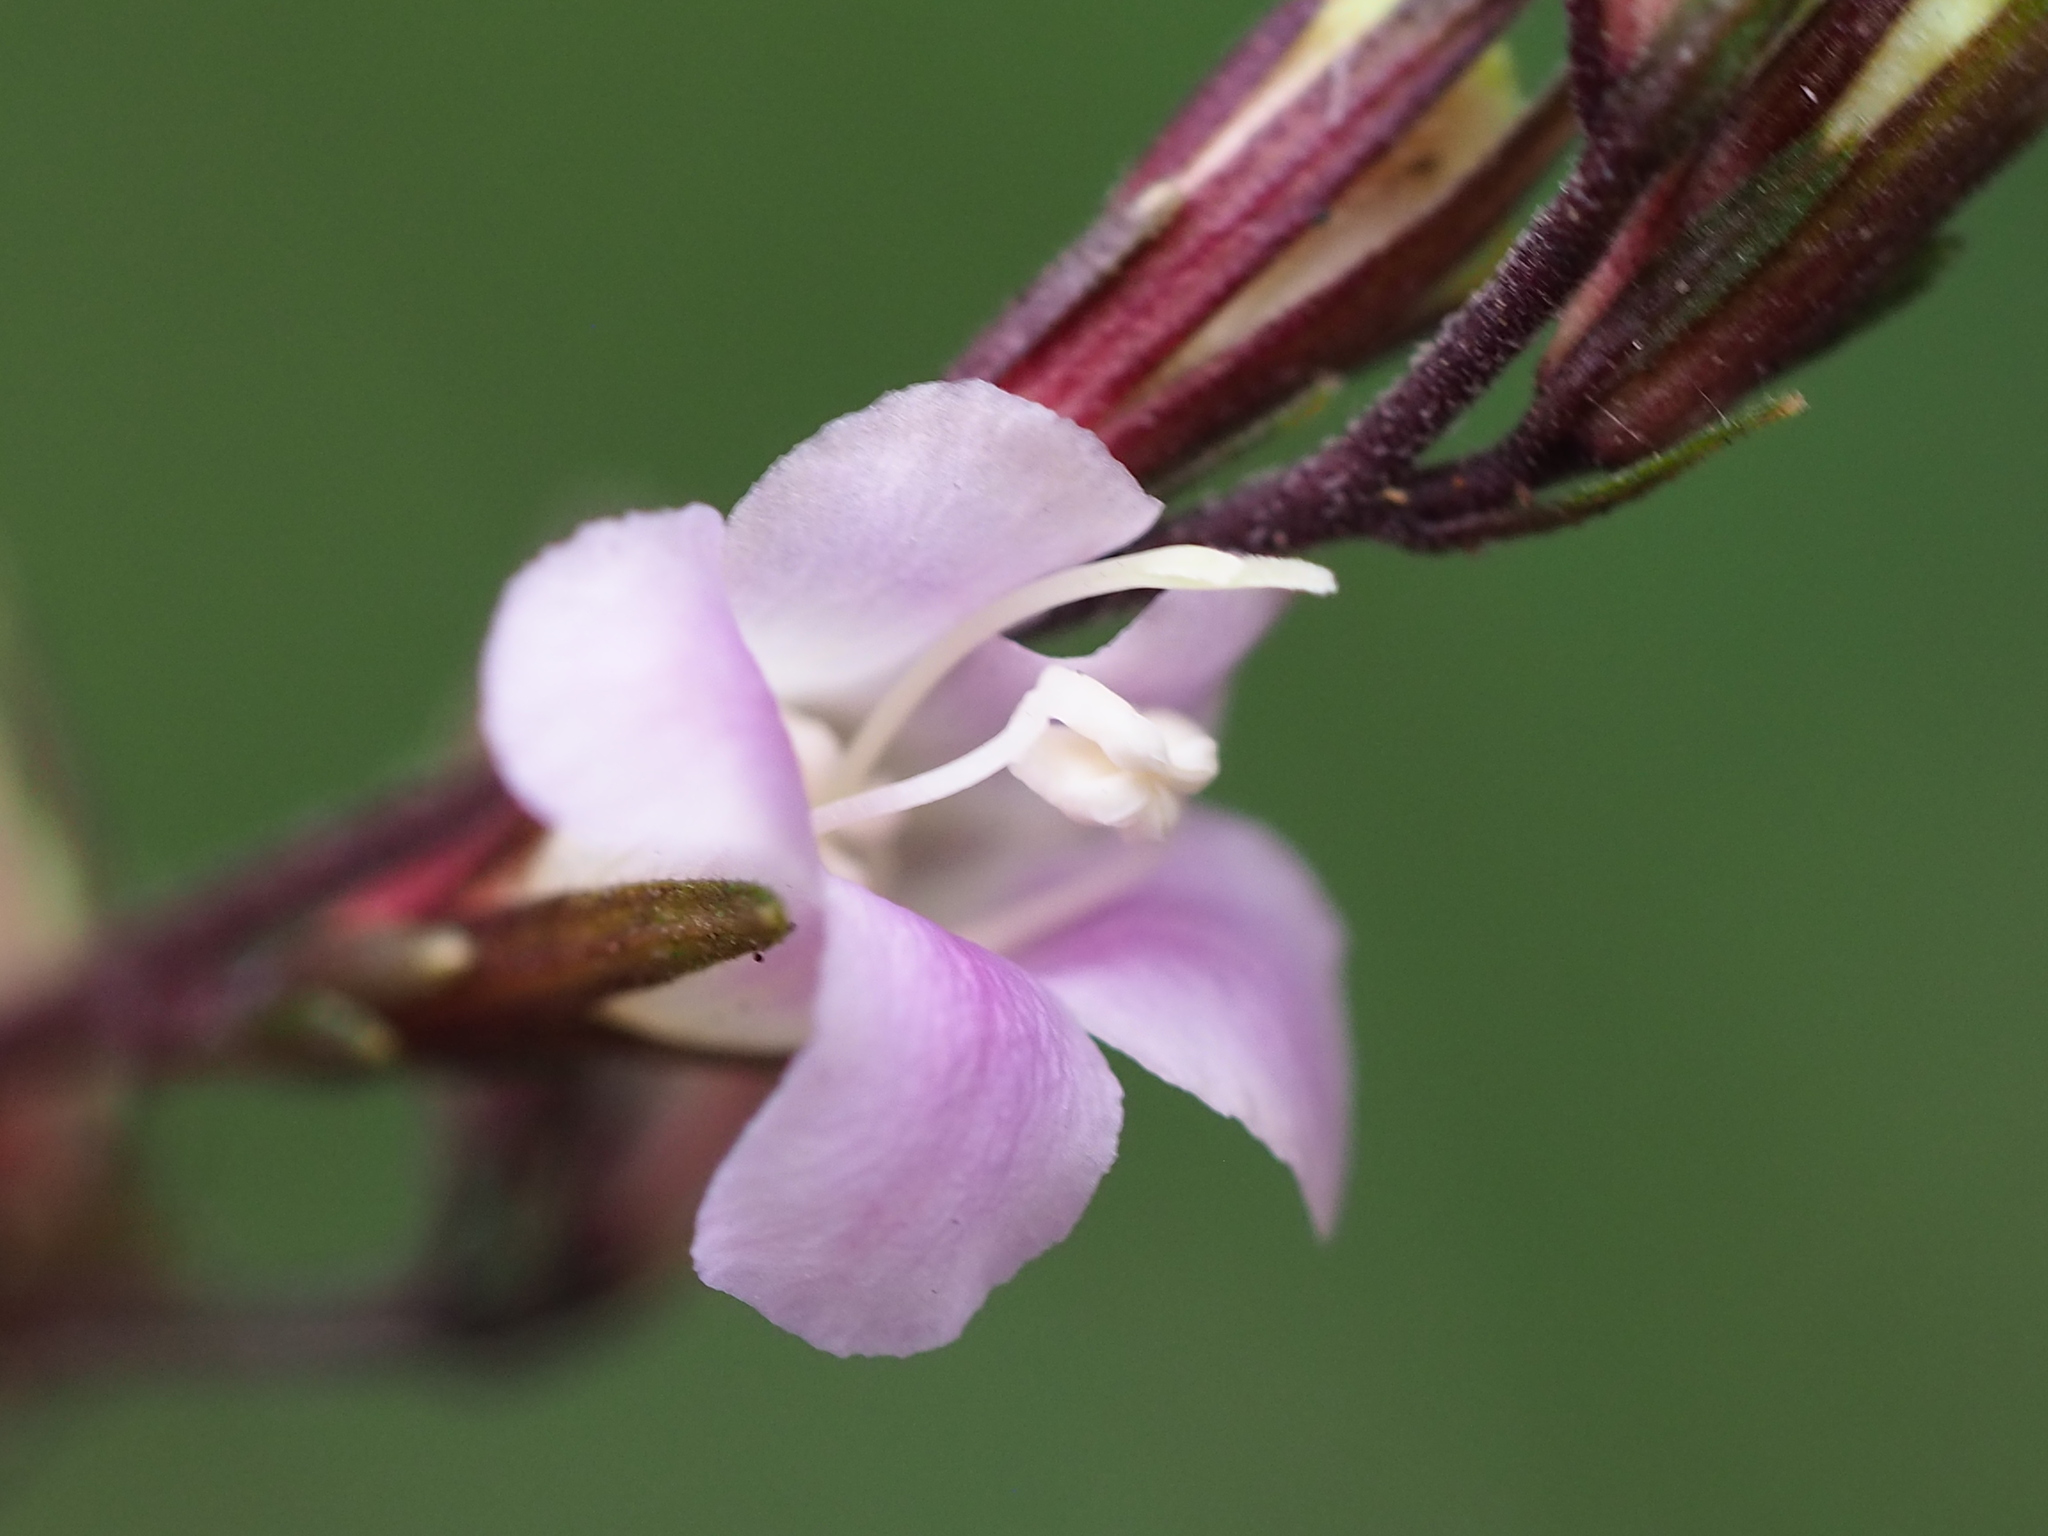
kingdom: Plantae
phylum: Tracheophyta
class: Magnoliopsida
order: Lamiales
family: Acanthaceae
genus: Staurogyne
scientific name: Staurogyne concinnula
